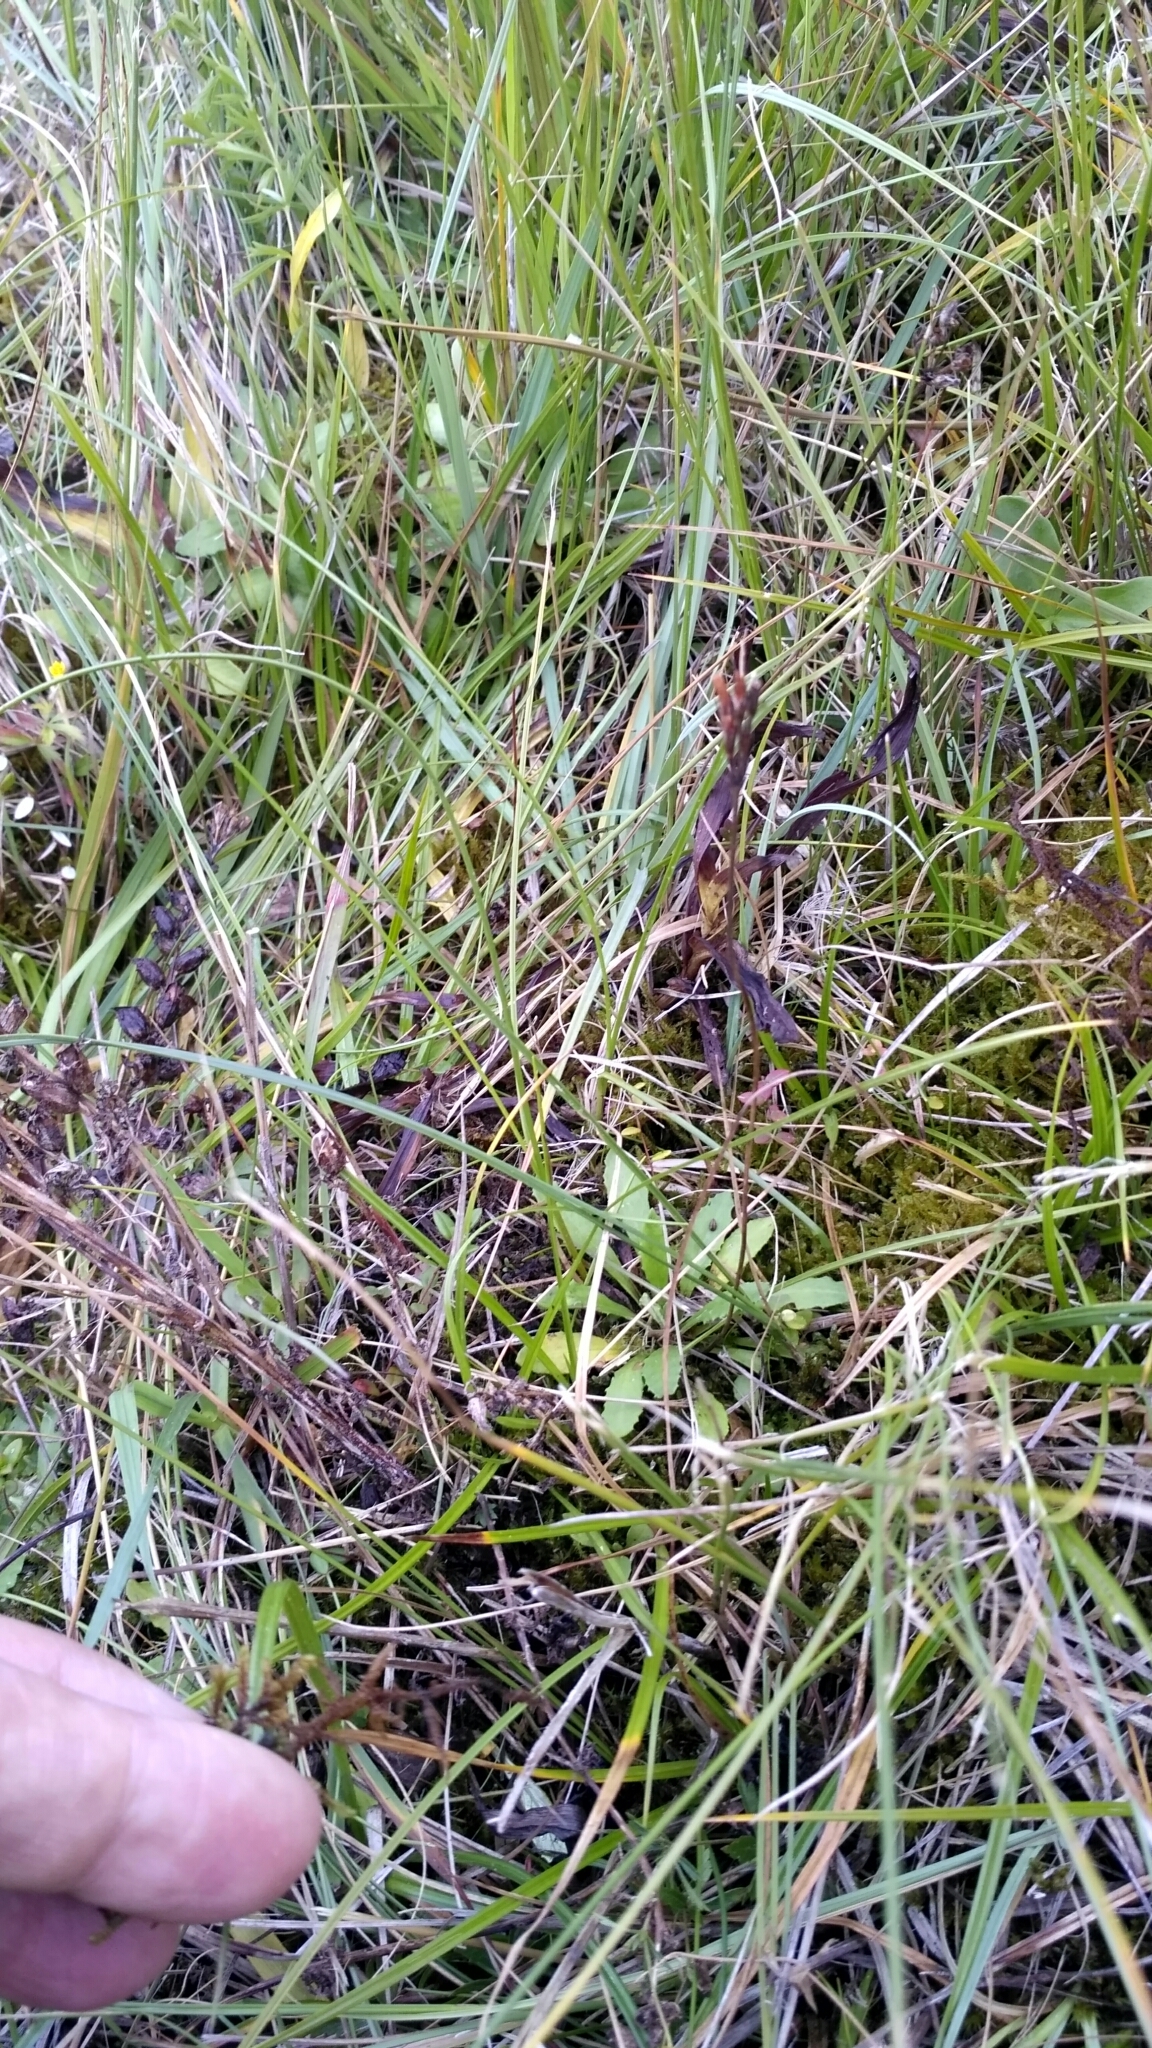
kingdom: Plantae
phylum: Tracheophyta
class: Magnoliopsida
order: Ericales
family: Primulaceae
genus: Primula
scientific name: Primula farinosa
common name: Bird's-eye primrose
